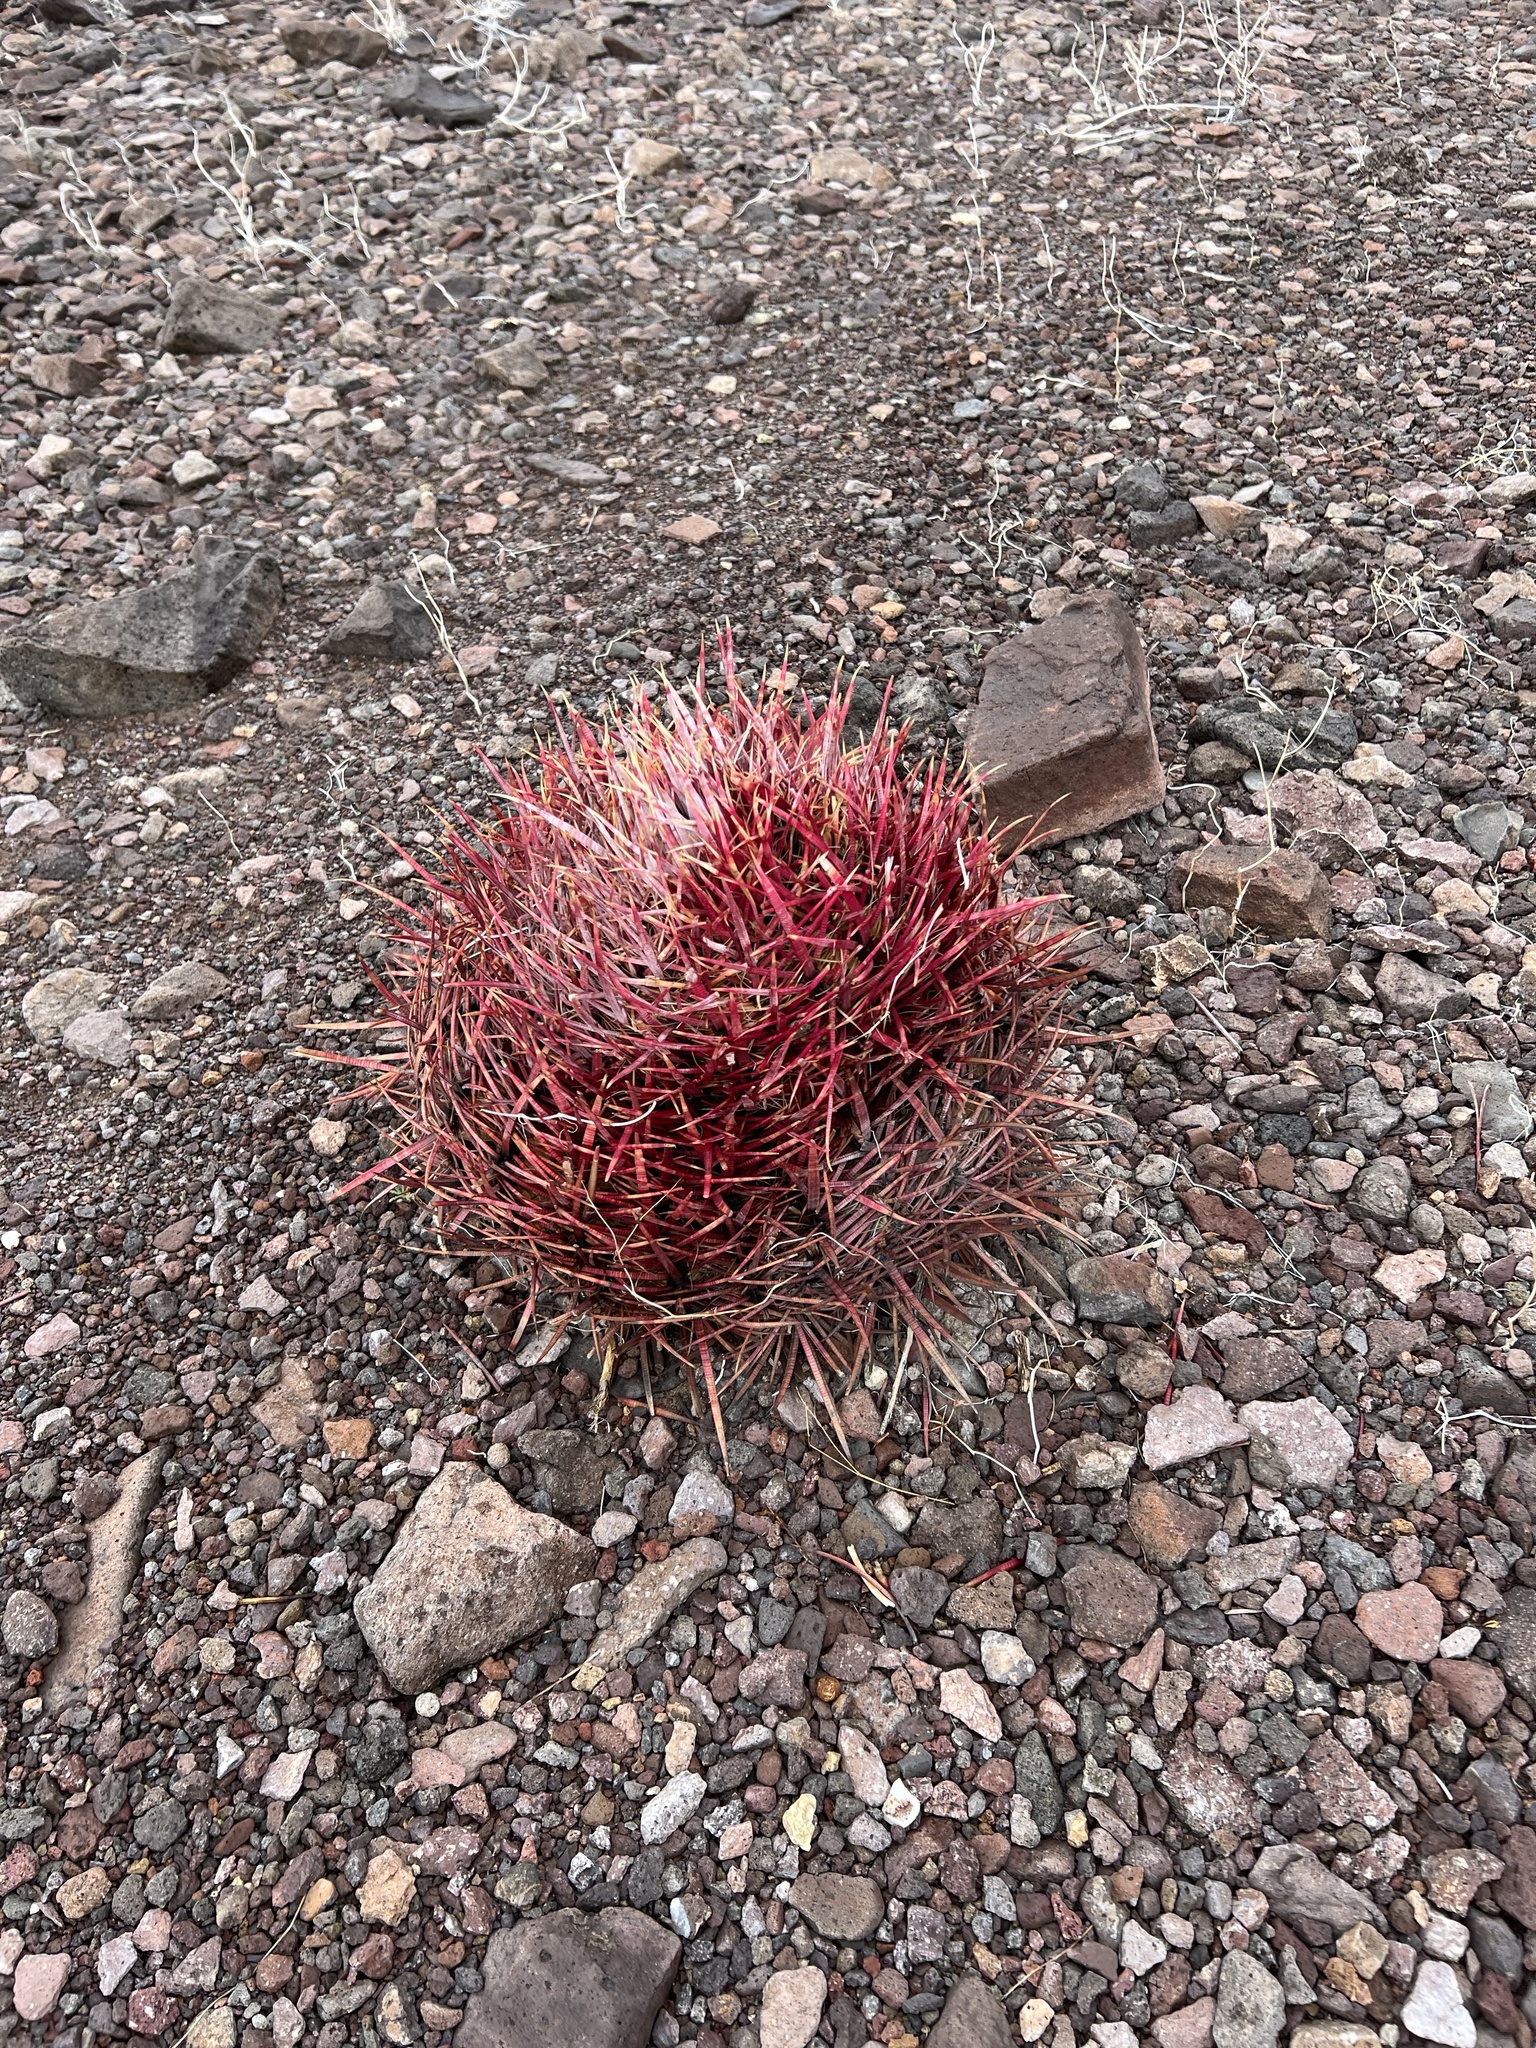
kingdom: Plantae
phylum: Tracheophyta
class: Magnoliopsida
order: Caryophyllales
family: Cactaceae
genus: Ferocactus
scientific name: Ferocactus cylindraceus
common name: California barrel cactus
